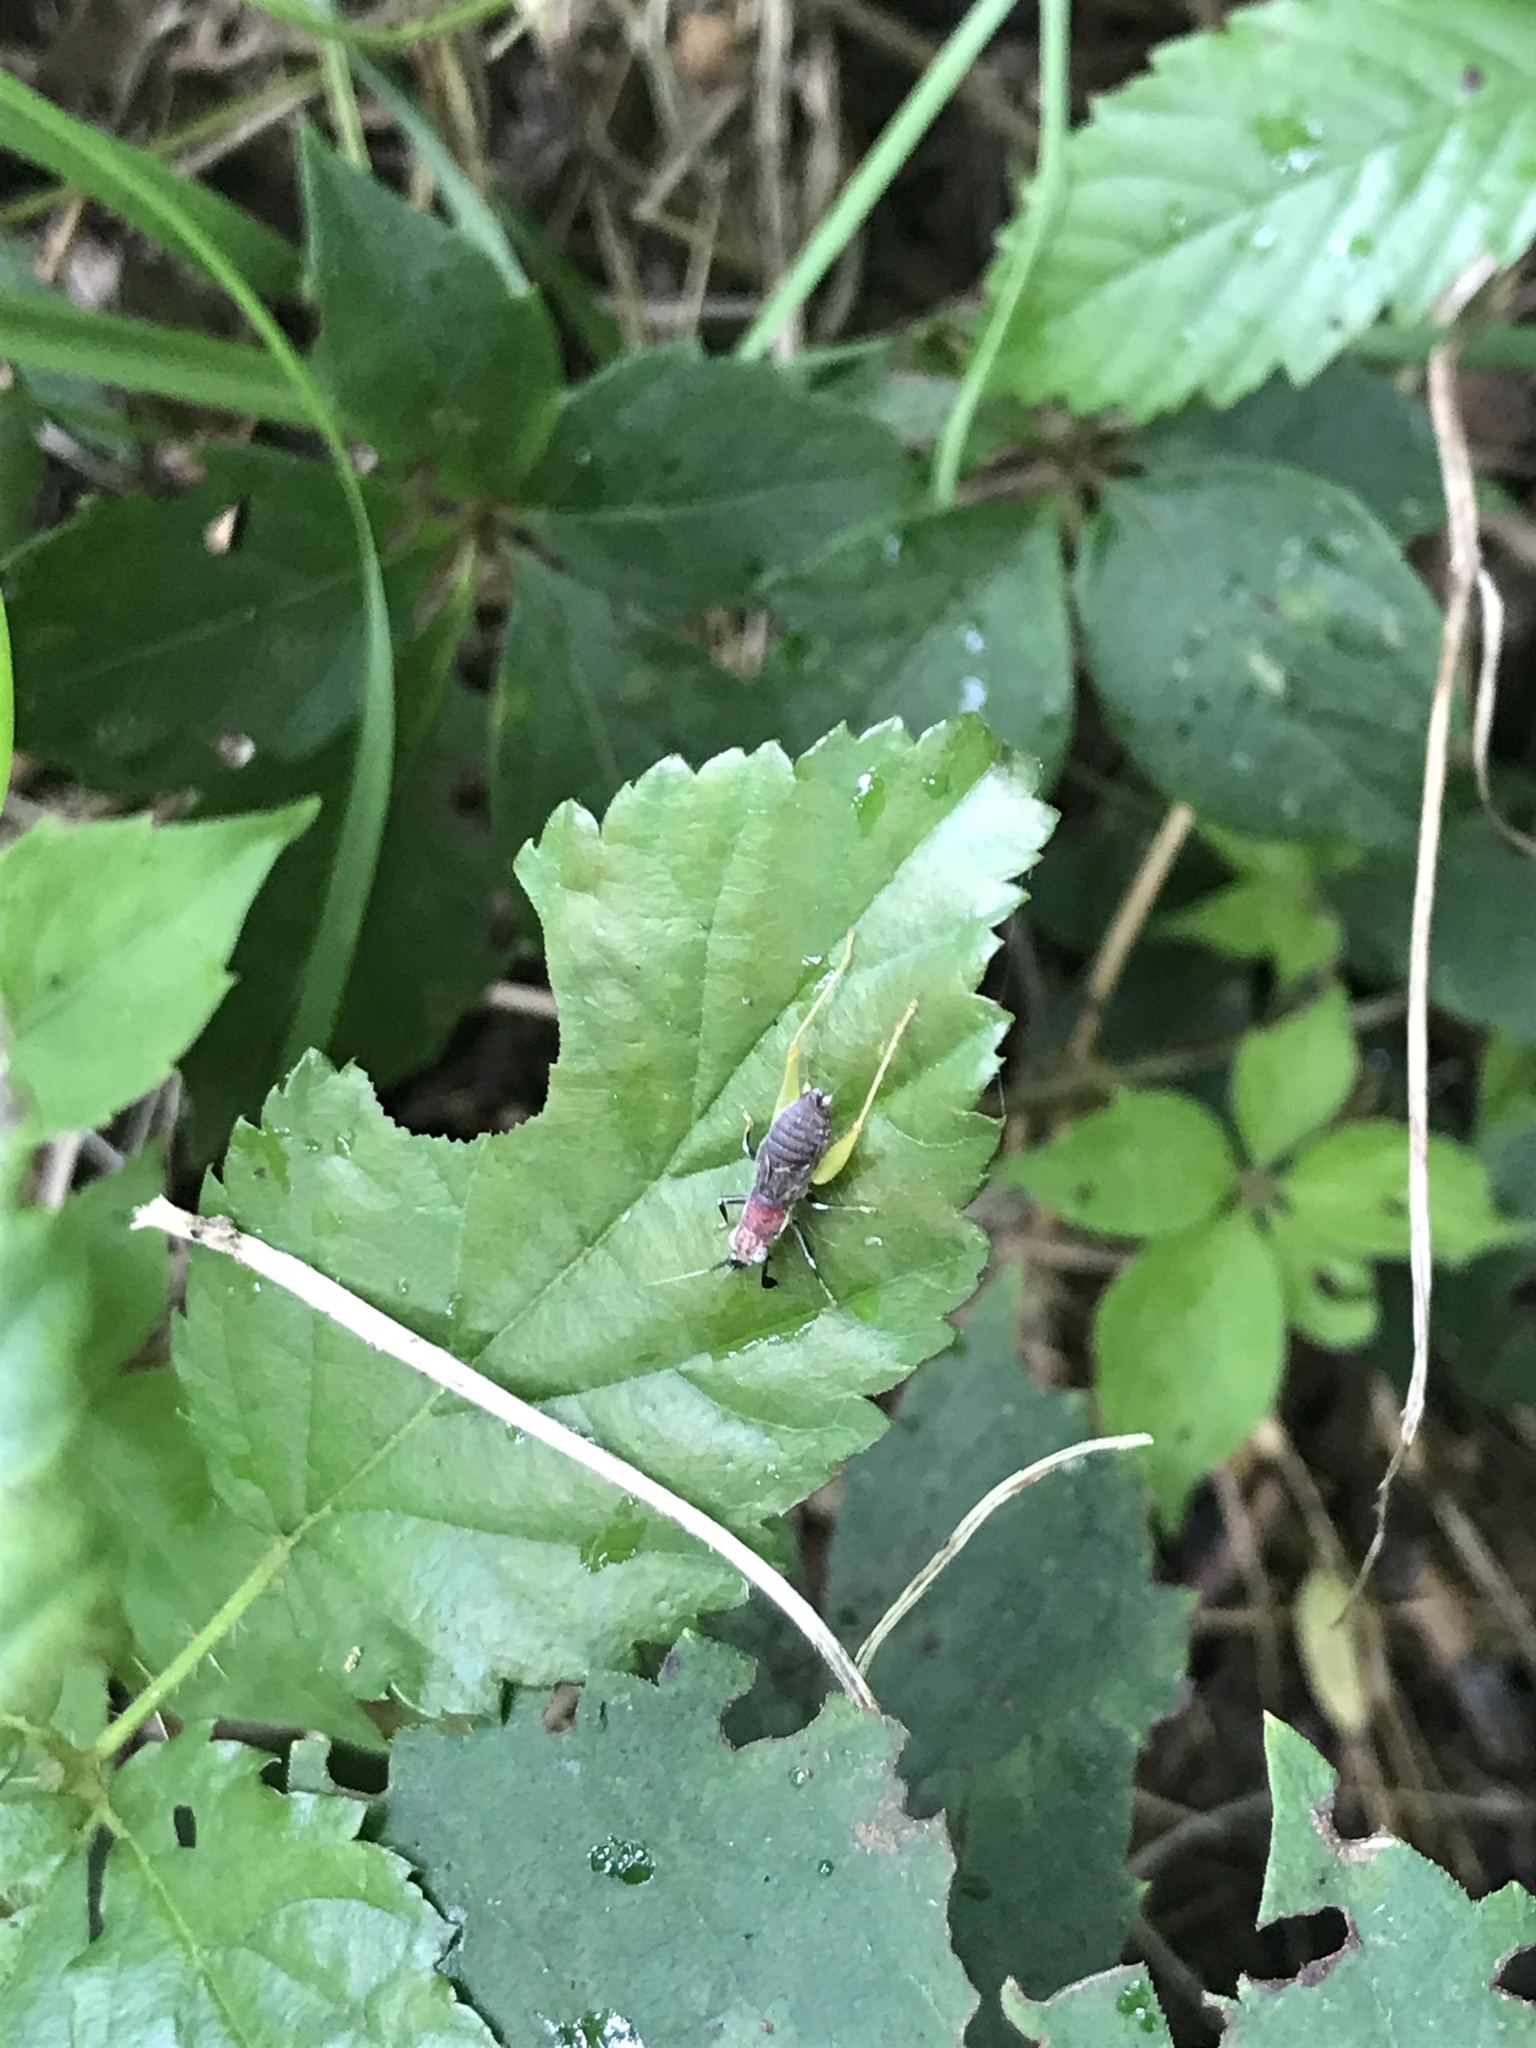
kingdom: Animalia
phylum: Arthropoda
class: Insecta
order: Orthoptera
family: Trigonidiidae
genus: Phyllopalpus
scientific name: Phyllopalpus pulchellus
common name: Handsome trig
